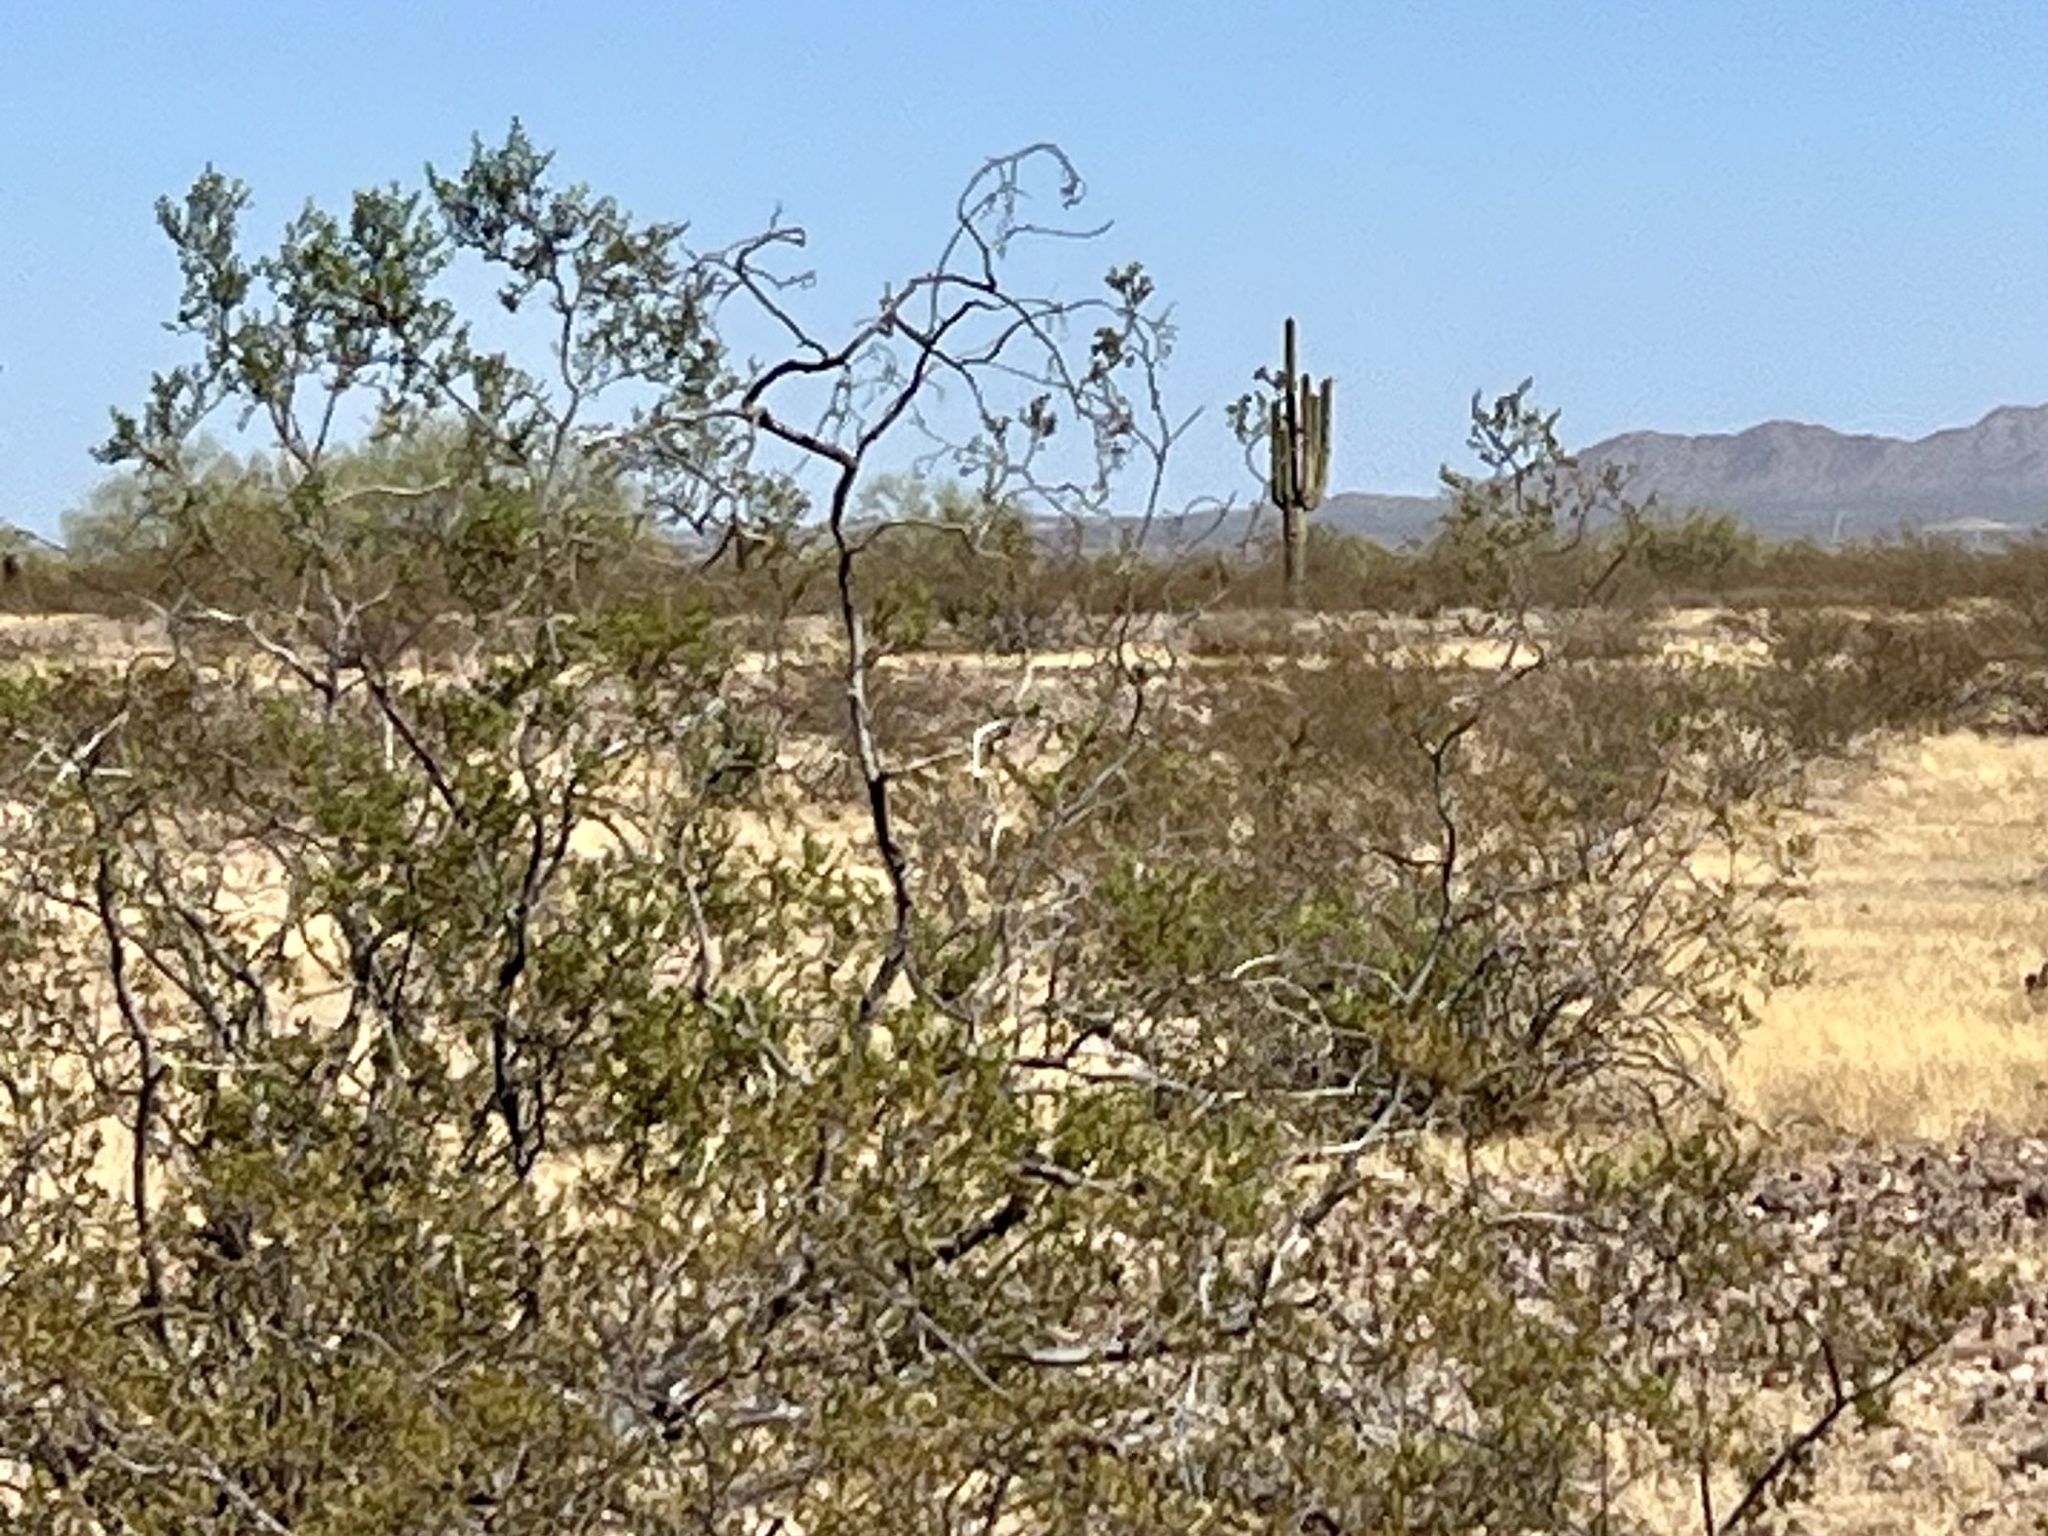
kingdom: Plantae
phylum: Tracheophyta
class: Magnoliopsida
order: Zygophyllales
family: Zygophyllaceae
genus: Larrea
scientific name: Larrea tridentata
